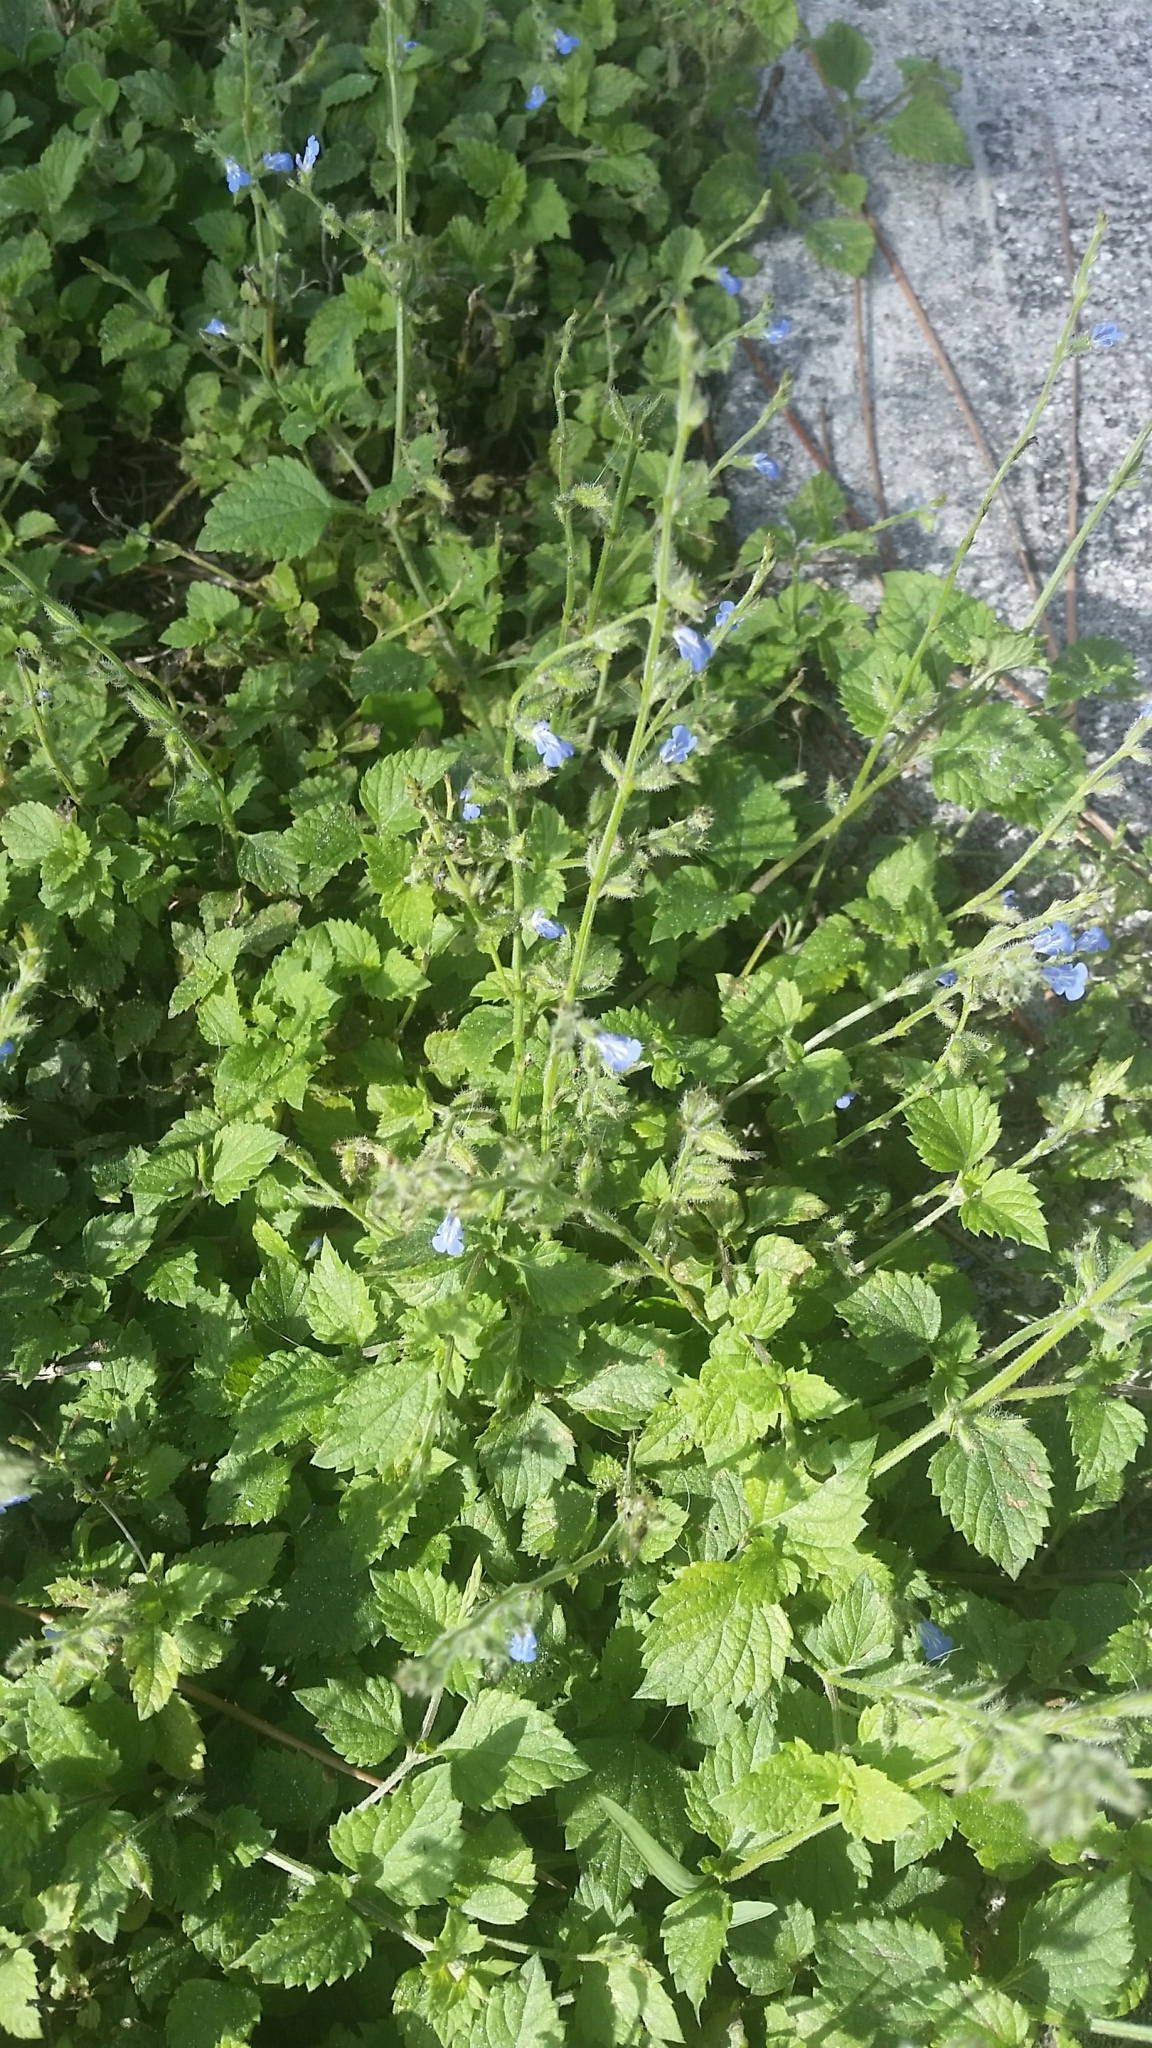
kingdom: Plantae
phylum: Tracheophyta
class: Magnoliopsida
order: Lamiales
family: Lamiaceae
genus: Salvia
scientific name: Salvia misella
